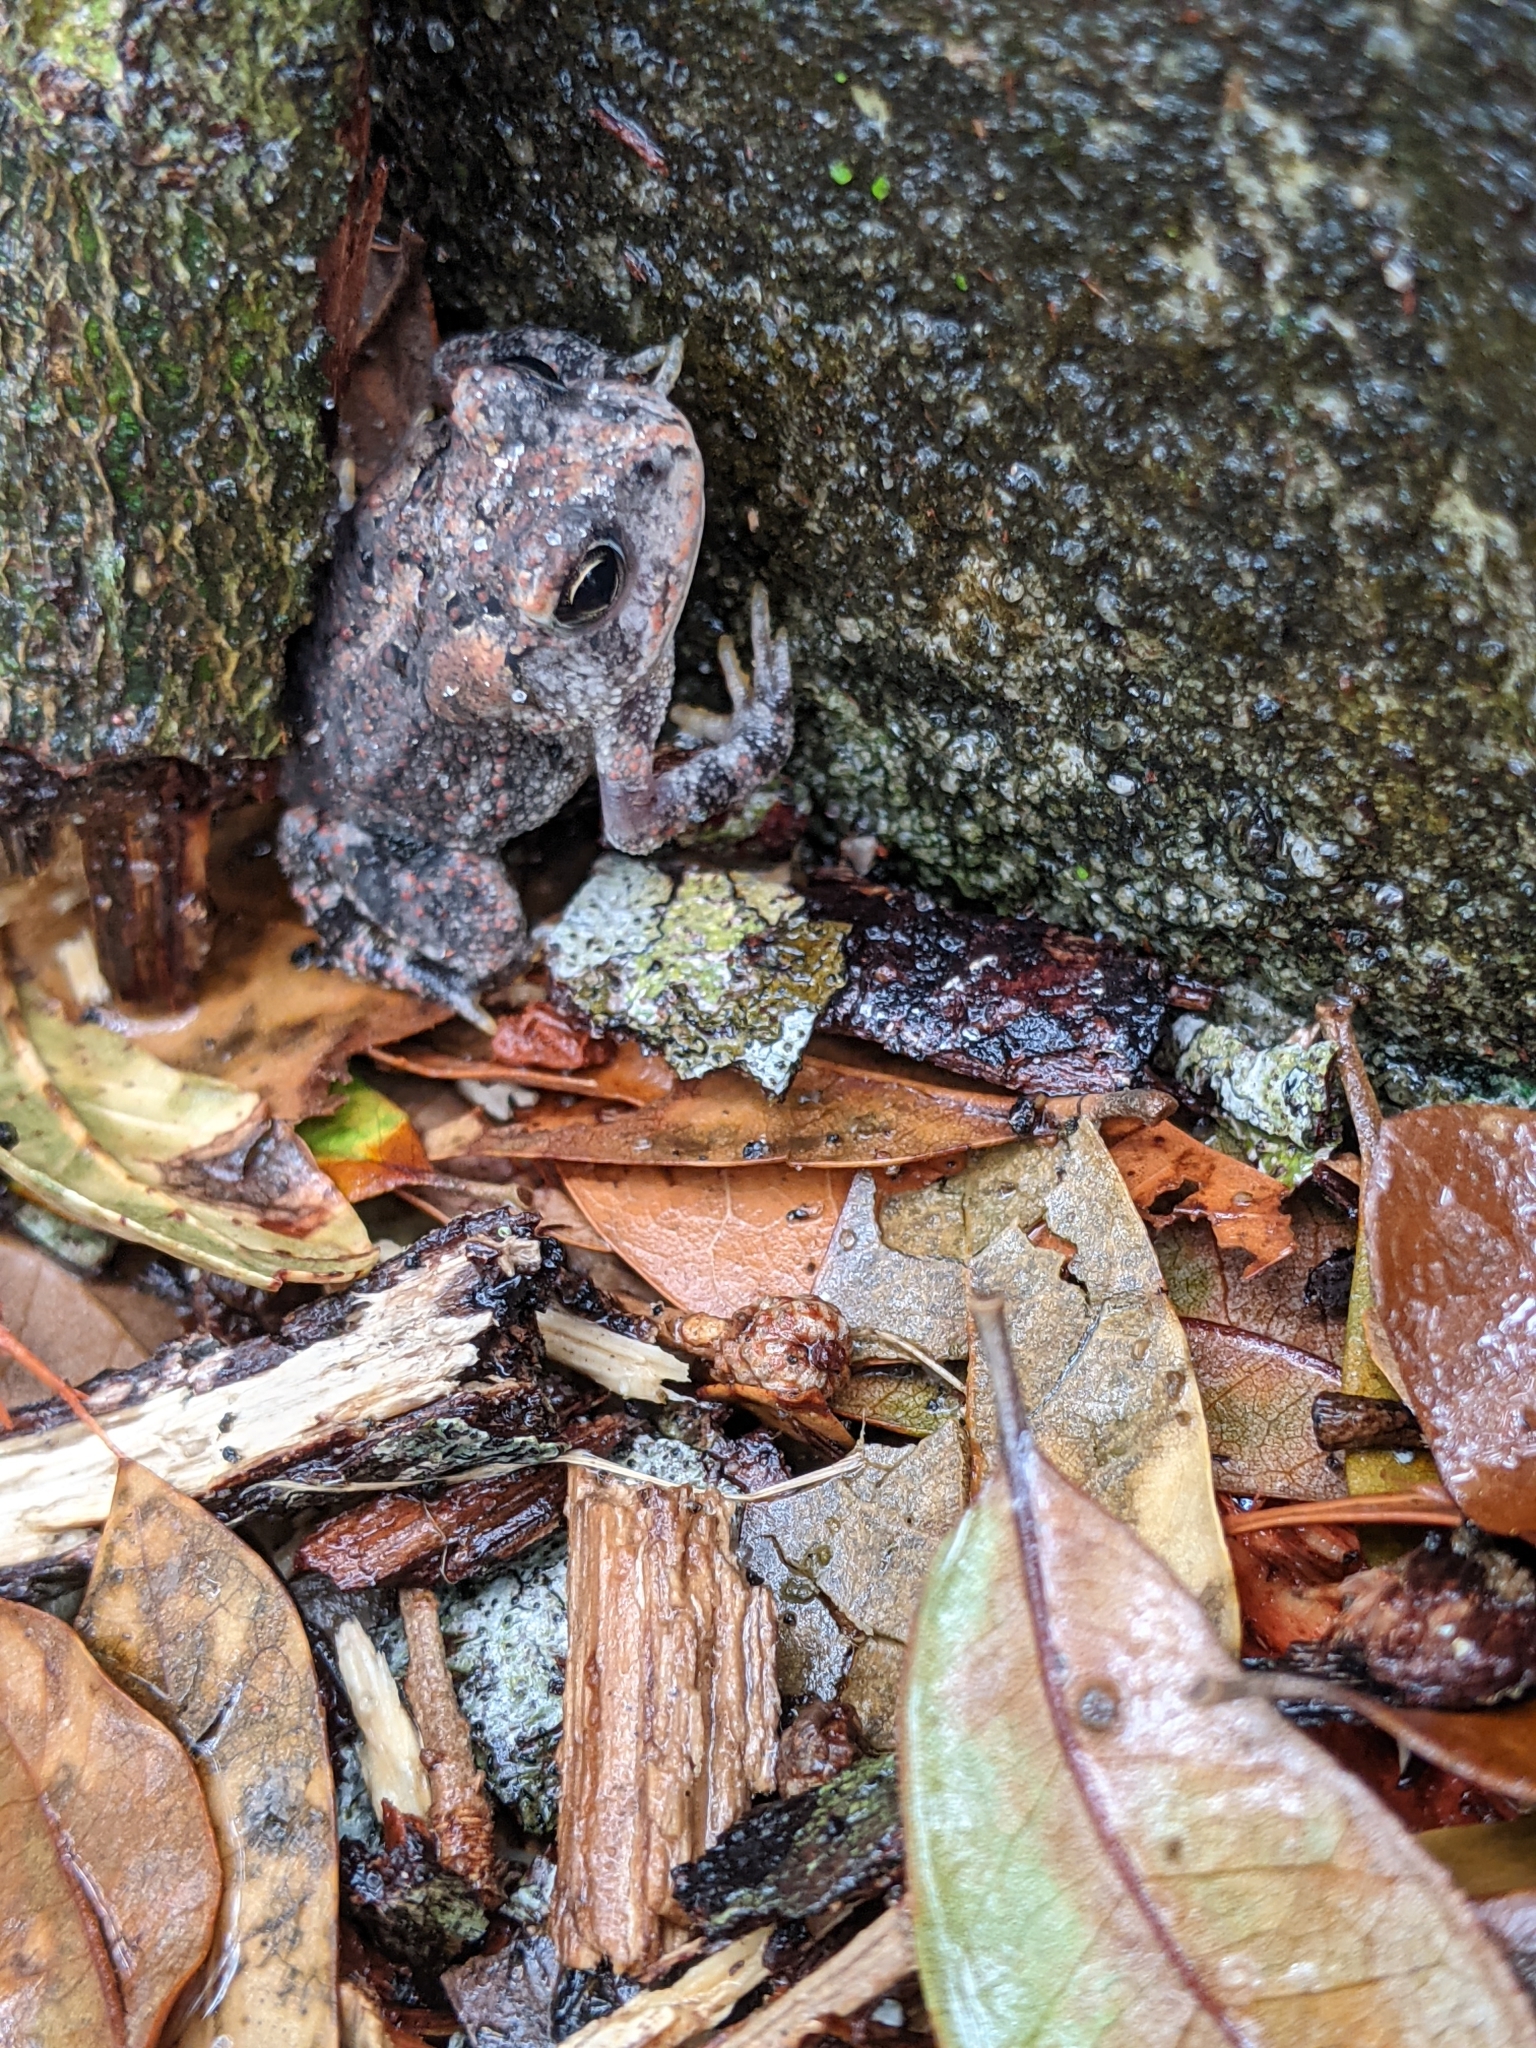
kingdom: Animalia
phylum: Chordata
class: Amphibia
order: Anura
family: Bufonidae
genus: Anaxyrus
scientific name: Anaxyrus terrestris
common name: Southern toad
